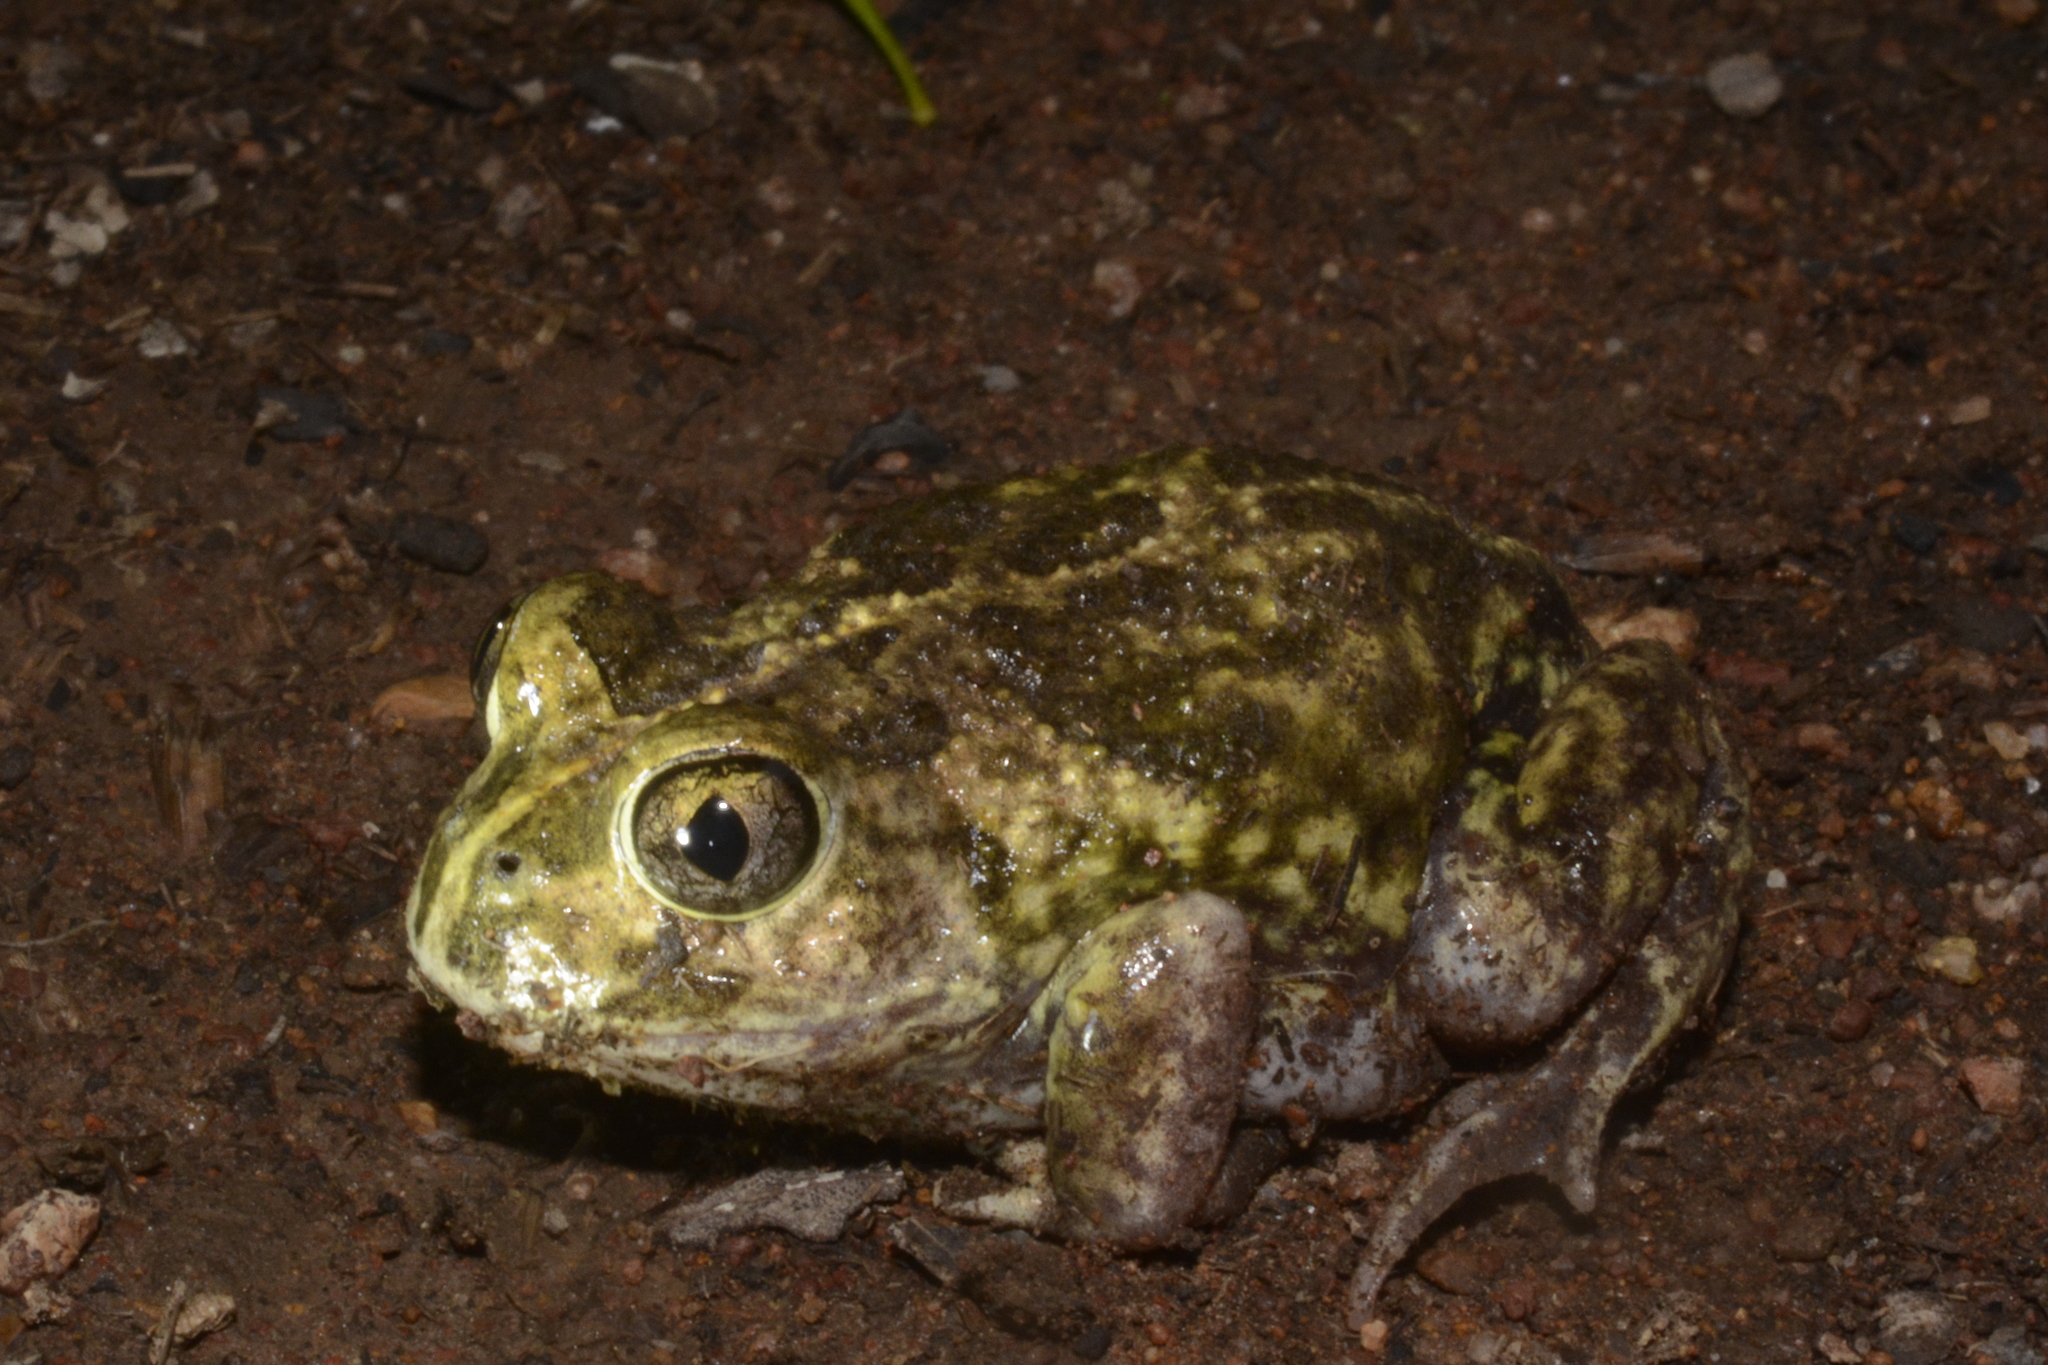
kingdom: Animalia
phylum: Chordata
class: Amphibia
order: Anura
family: Limnodynastidae
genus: Neobatrachus
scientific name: Neobatrachus sudelli
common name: Common spadefoot toad
